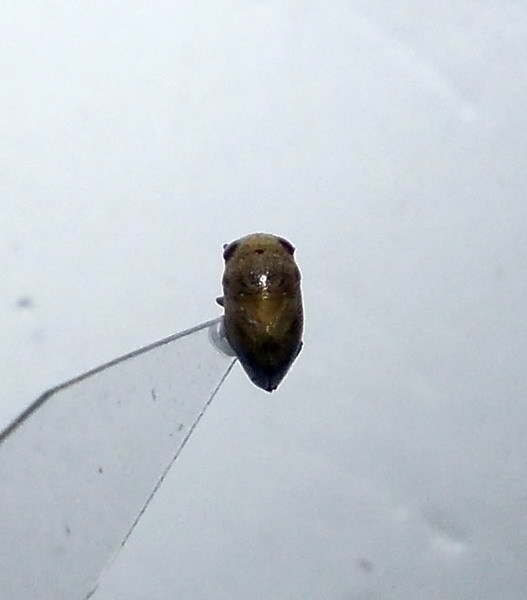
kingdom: Animalia
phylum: Arthropoda
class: Insecta
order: Hemiptera
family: Pleidae
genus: Plea
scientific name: Plea minutissima
